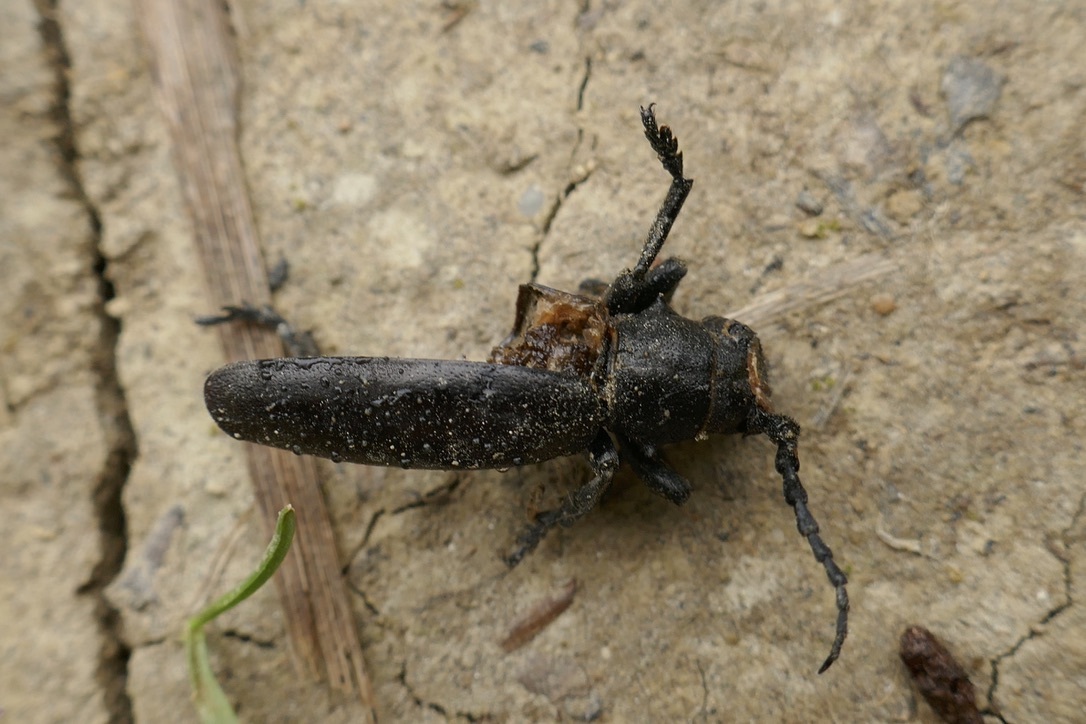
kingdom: Animalia
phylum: Arthropoda
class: Insecta
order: Coleoptera
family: Cerambycidae
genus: Dorcadion
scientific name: Dorcadion aethiops
